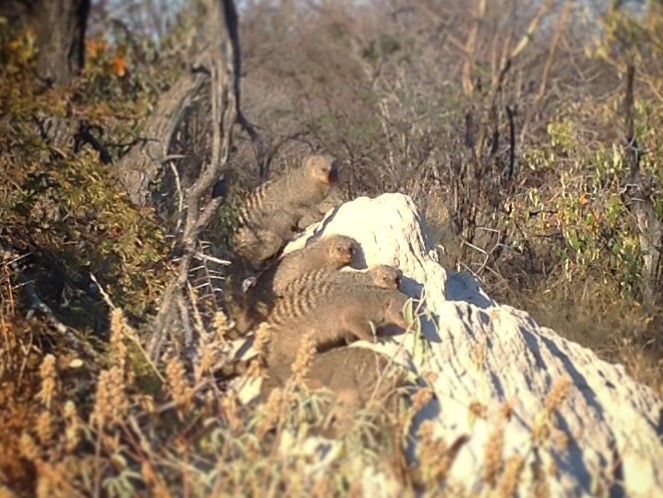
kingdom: Animalia
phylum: Chordata
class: Mammalia
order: Carnivora
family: Herpestidae
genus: Mungos
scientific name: Mungos mungo
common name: Banded mongoose
